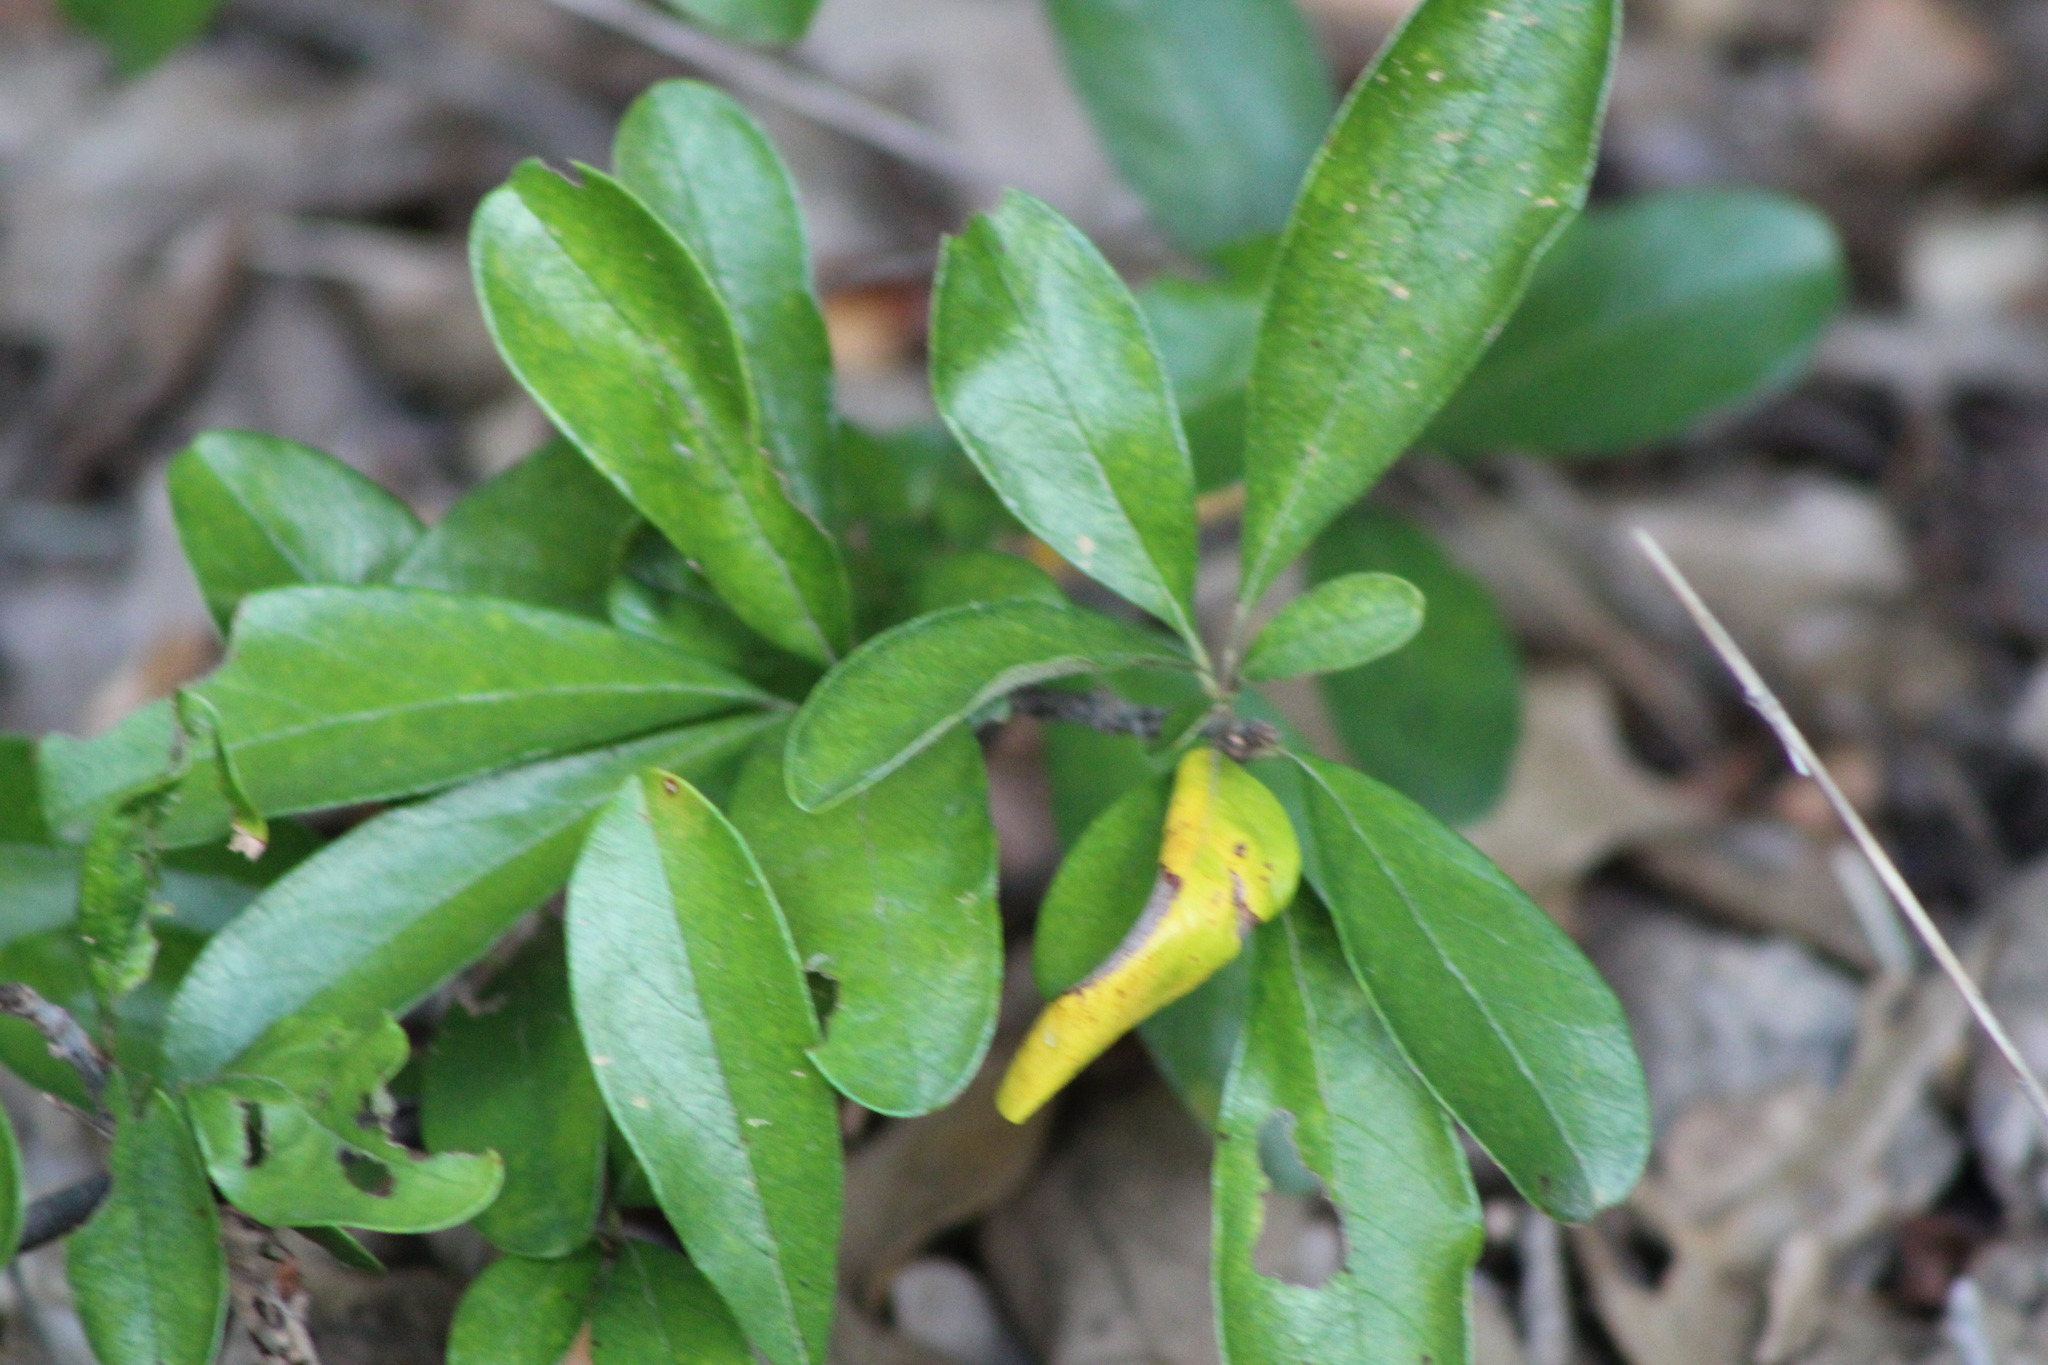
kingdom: Plantae
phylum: Tracheophyta
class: Magnoliopsida
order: Ericales
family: Sapotaceae
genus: Sideroxylon
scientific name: Sideroxylon lanuginosum
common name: Chittamwood
